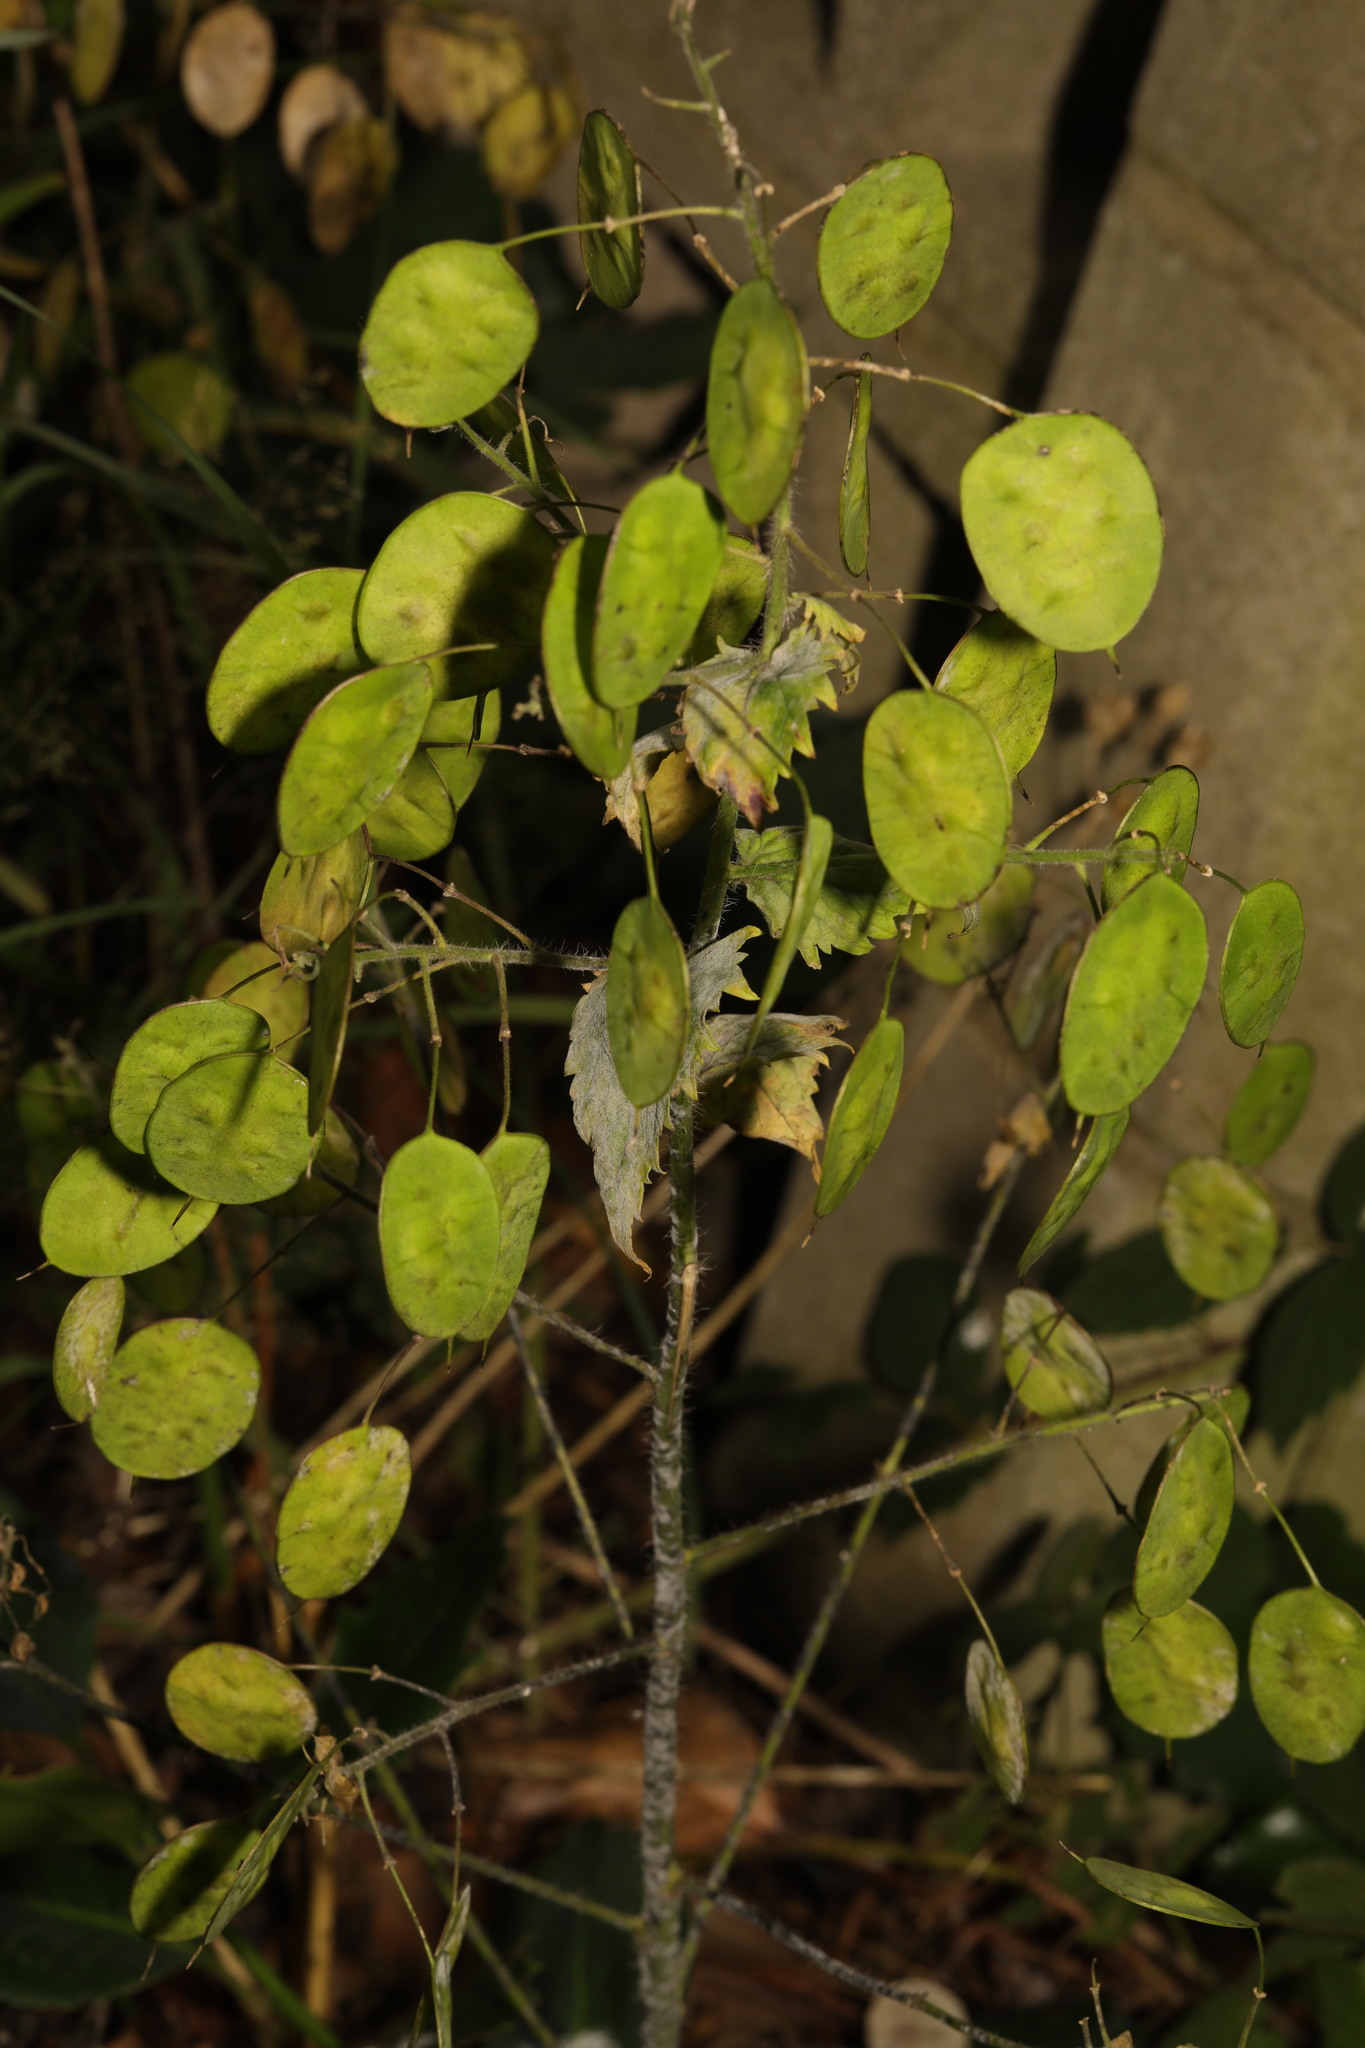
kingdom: Plantae
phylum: Tracheophyta
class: Magnoliopsida
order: Brassicales
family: Brassicaceae
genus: Lunaria
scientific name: Lunaria annua
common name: Honesty
